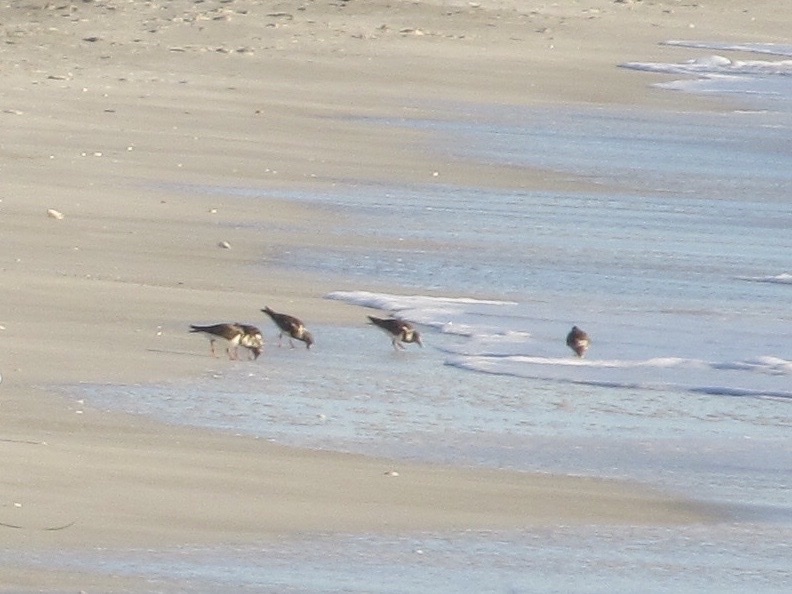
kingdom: Animalia
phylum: Chordata
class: Aves
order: Charadriiformes
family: Scolopacidae
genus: Arenaria
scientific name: Arenaria interpres
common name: Ruddy turnstone
